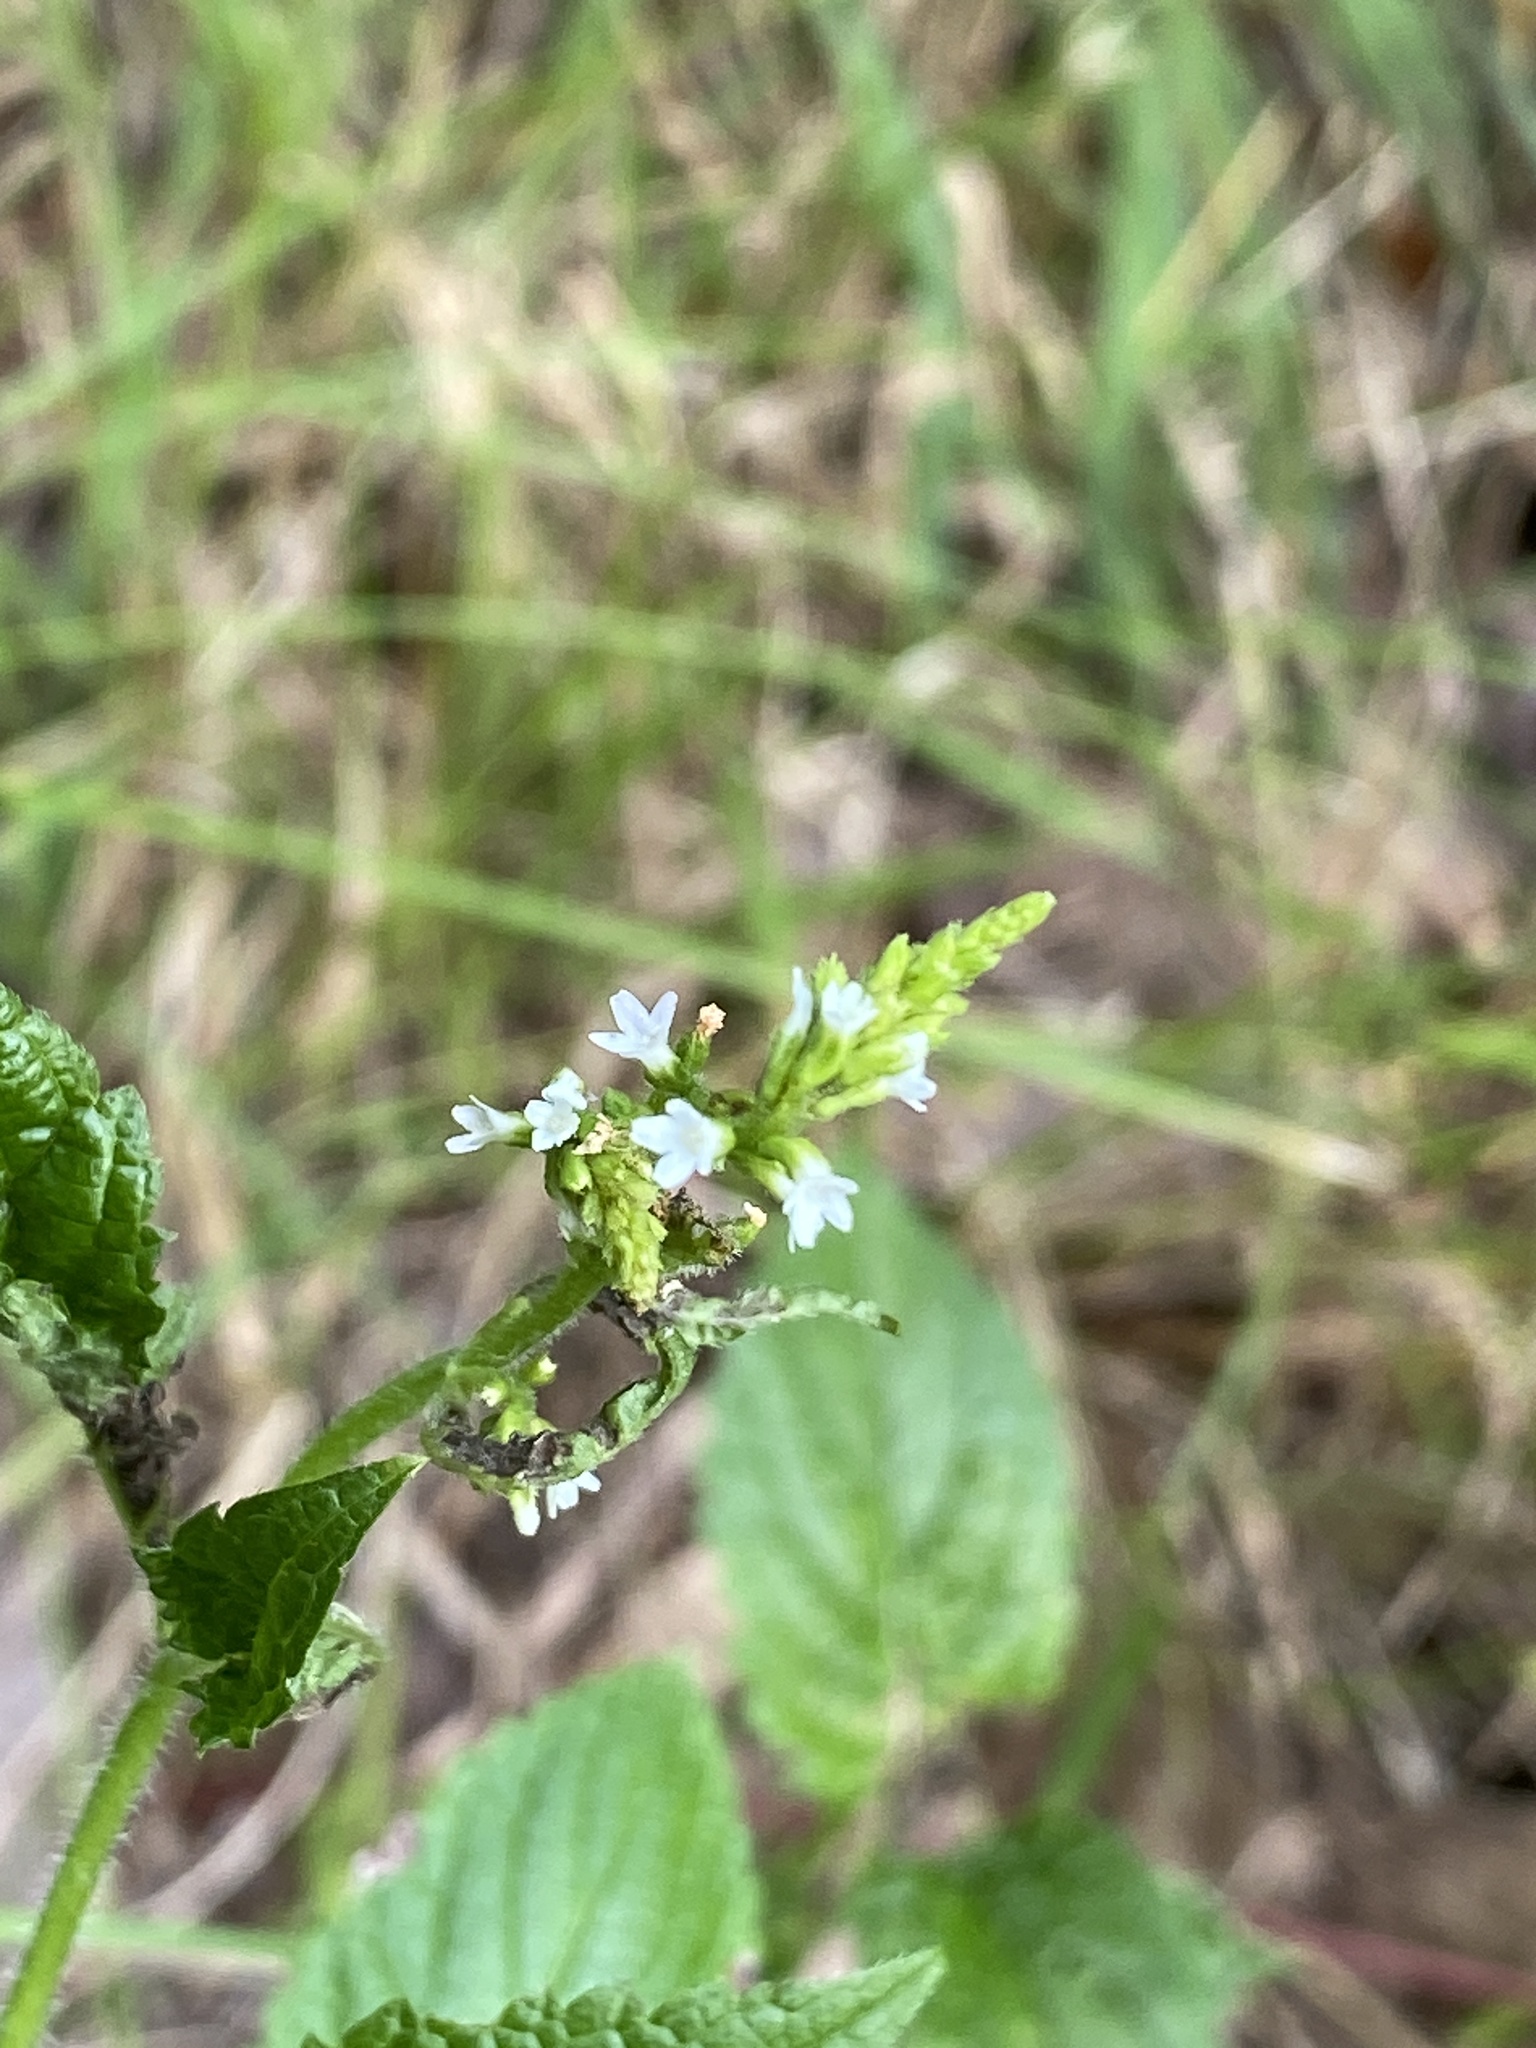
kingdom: Plantae
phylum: Tracheophyta
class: Magnoliopsida
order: Lamiales
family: Verbenaceae
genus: Verbena
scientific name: Verbena urticifolia
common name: Nettle-leaved vervain
